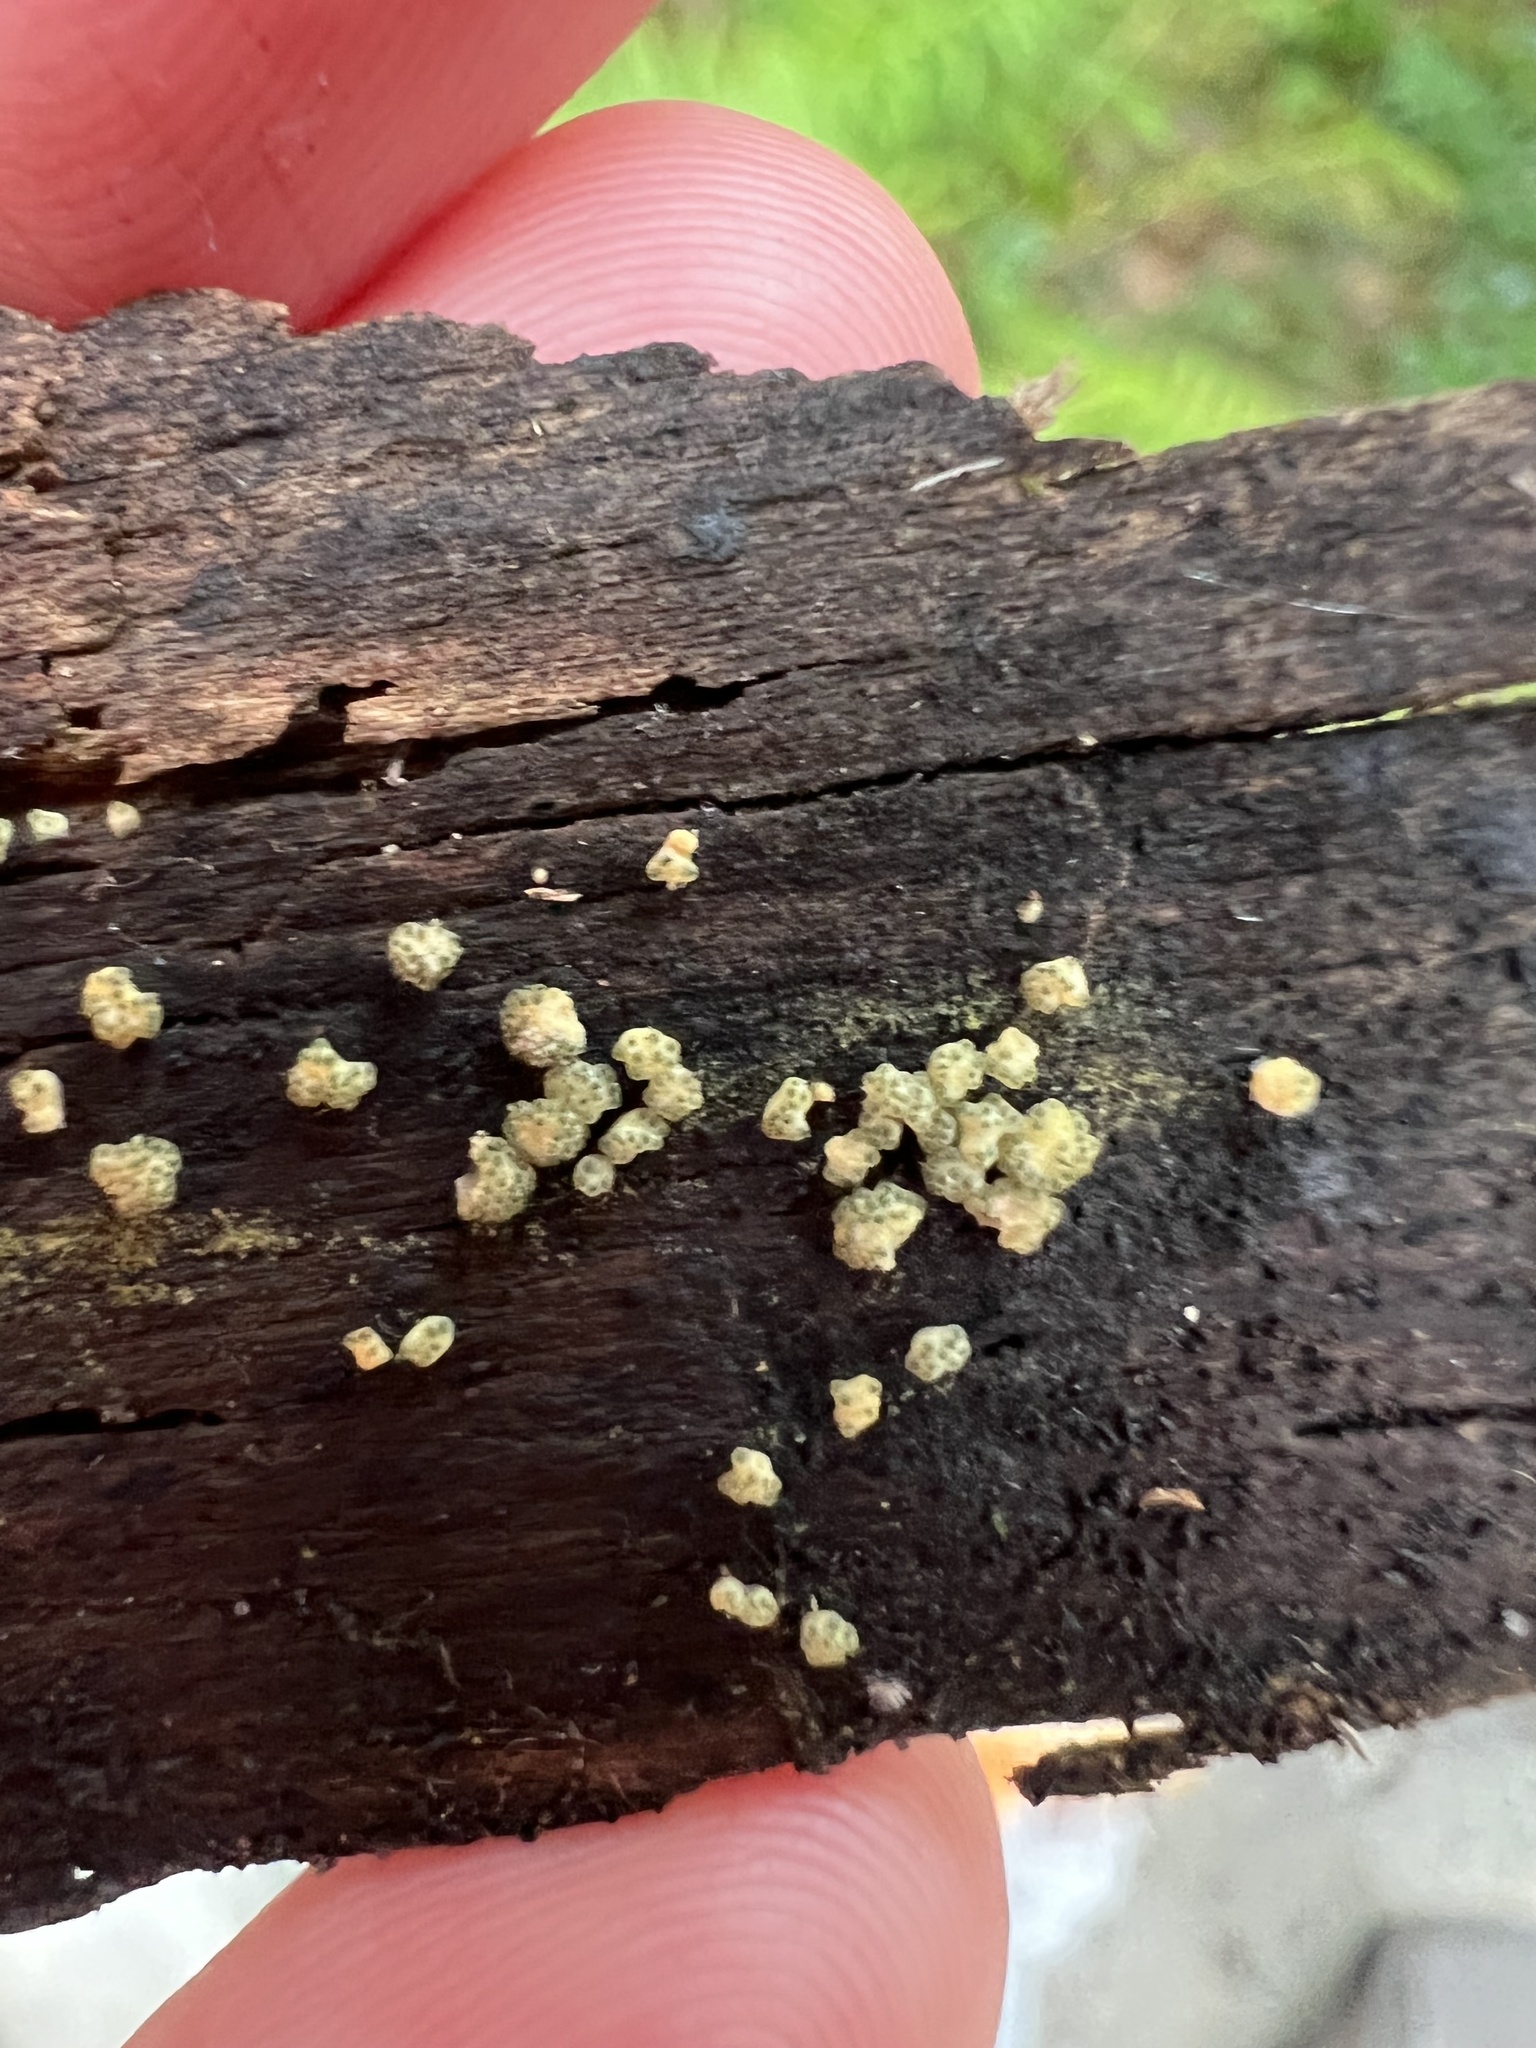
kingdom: Fungi
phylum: Ascomycota
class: Sordariomycetes
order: Hypocreales
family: Hypocreaceae
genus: Trichoderma
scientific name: Trichoderma gelatinosum
